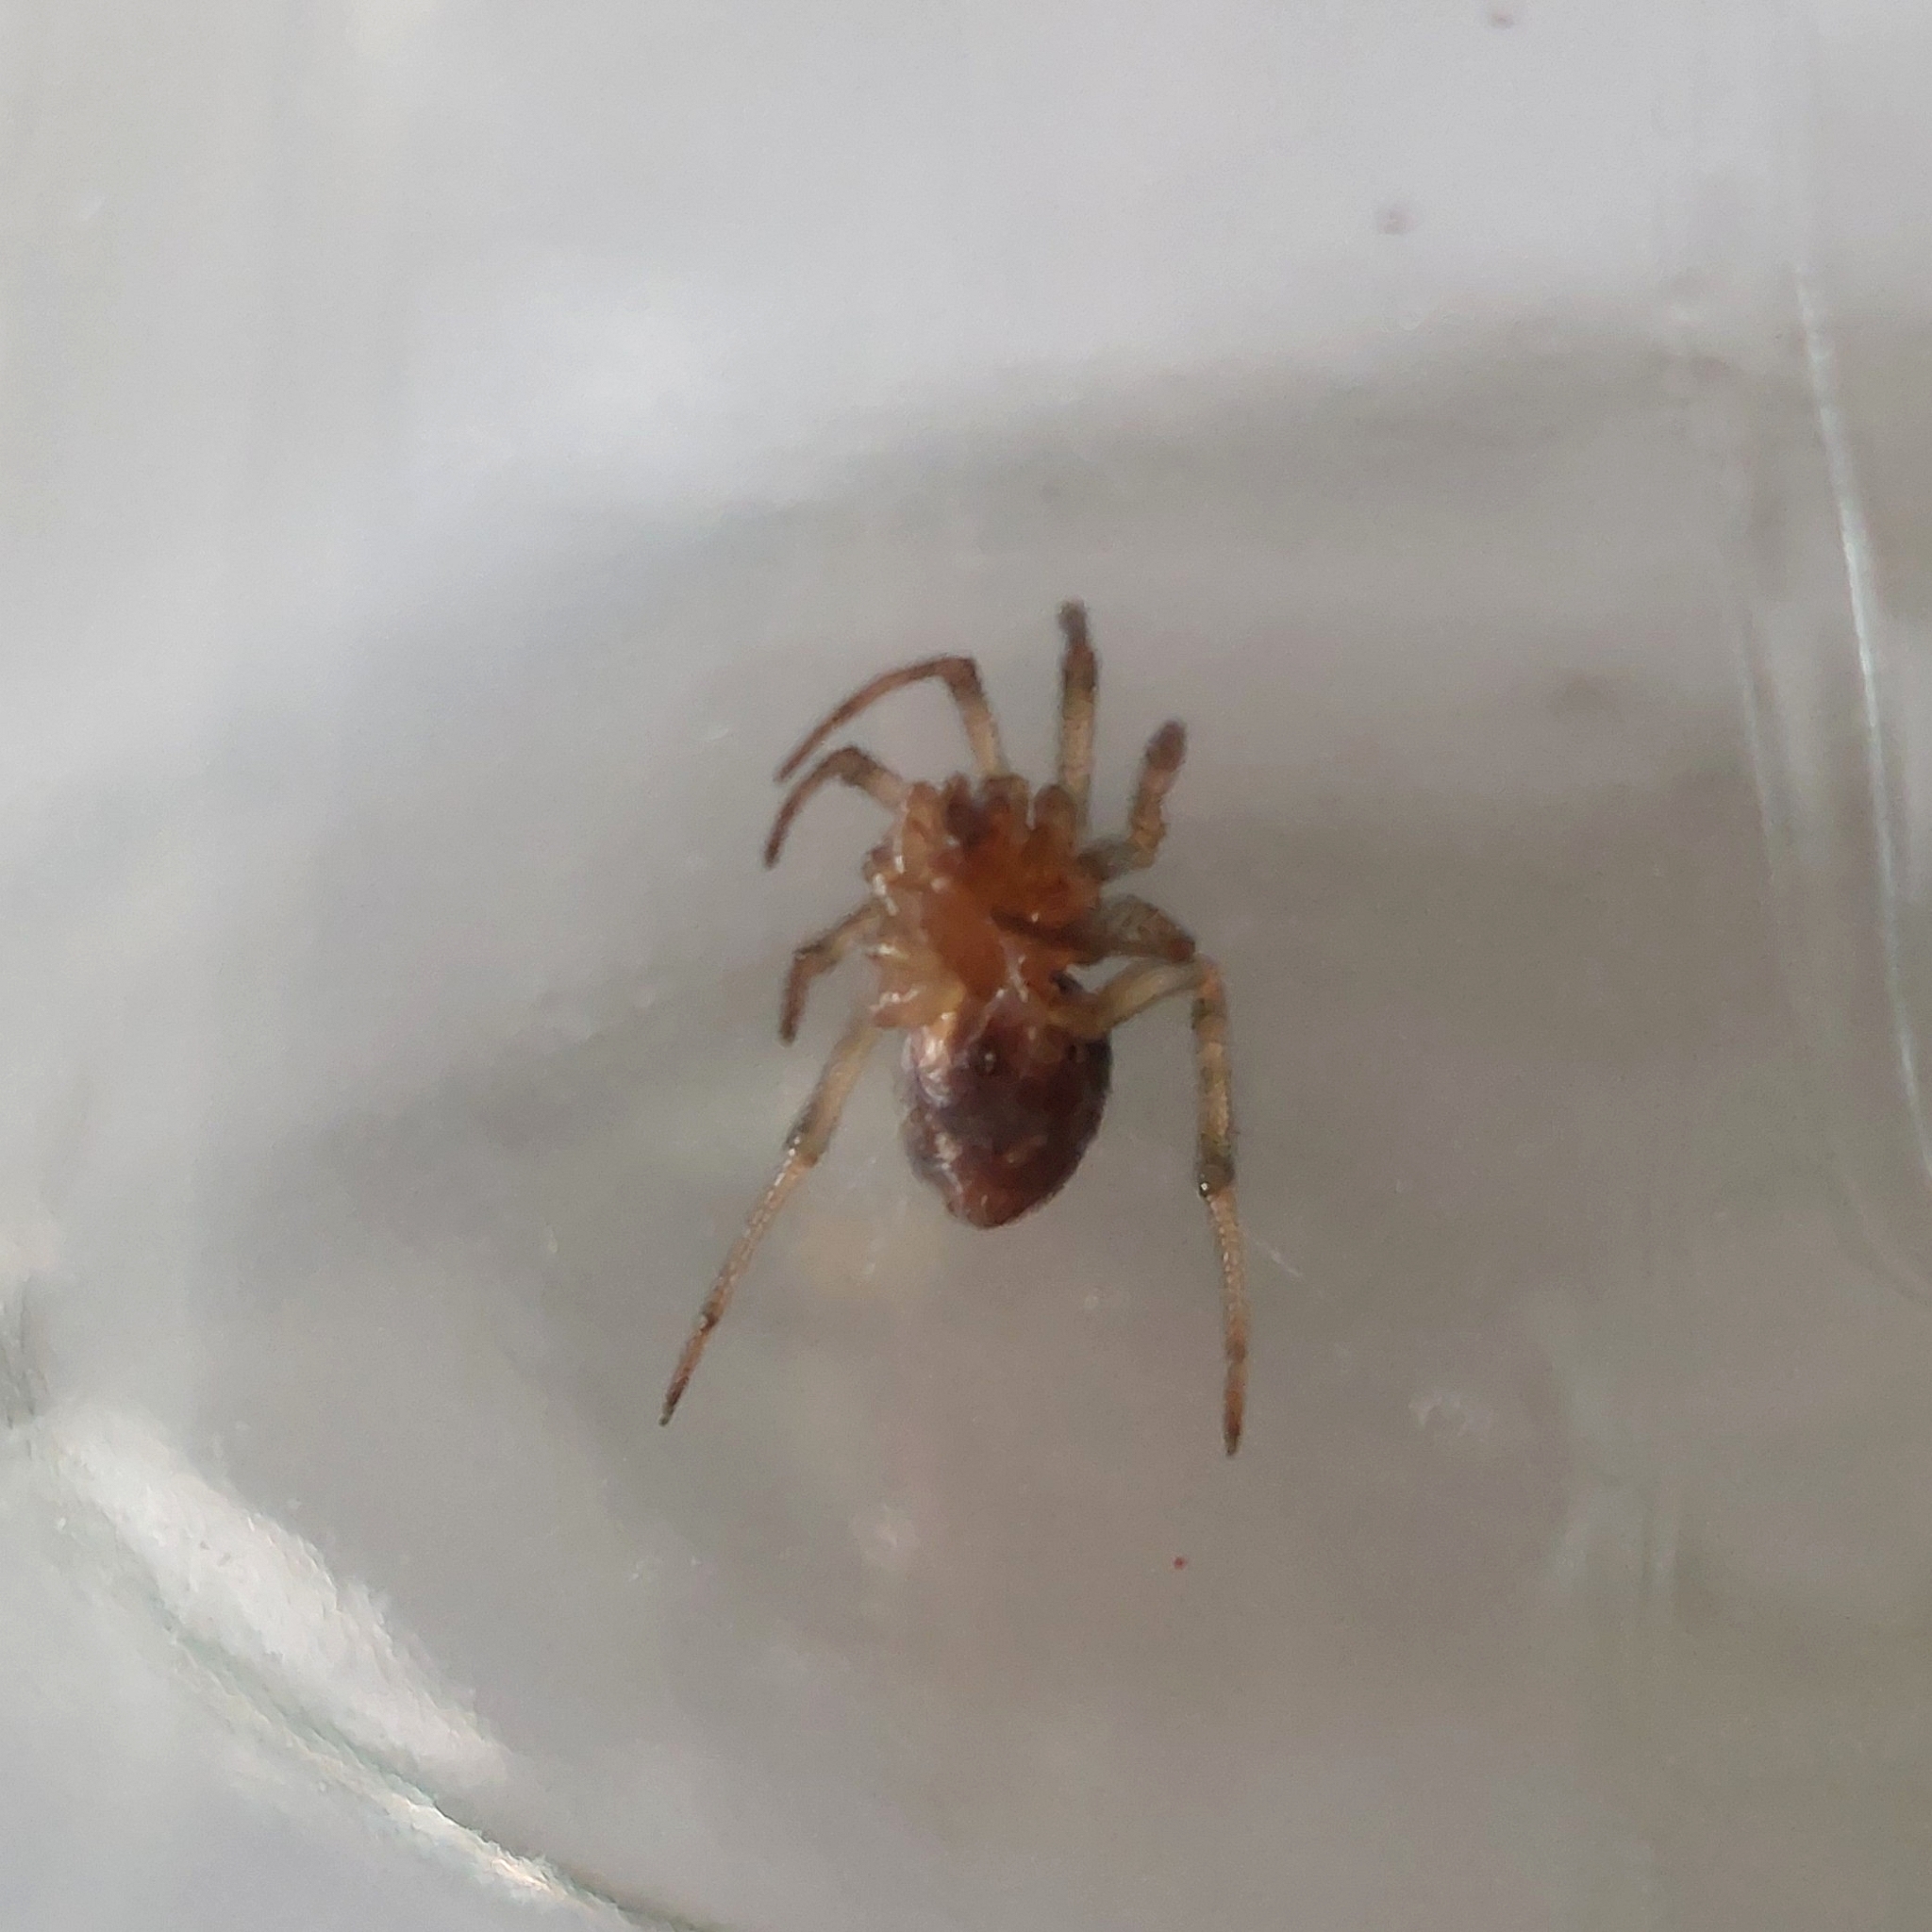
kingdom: Animalia
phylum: Arthropoda
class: Arachnida
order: Araneae
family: Theridiidae
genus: Steatoda
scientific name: Steatoda triangulosa
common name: Triangulate bud spider
